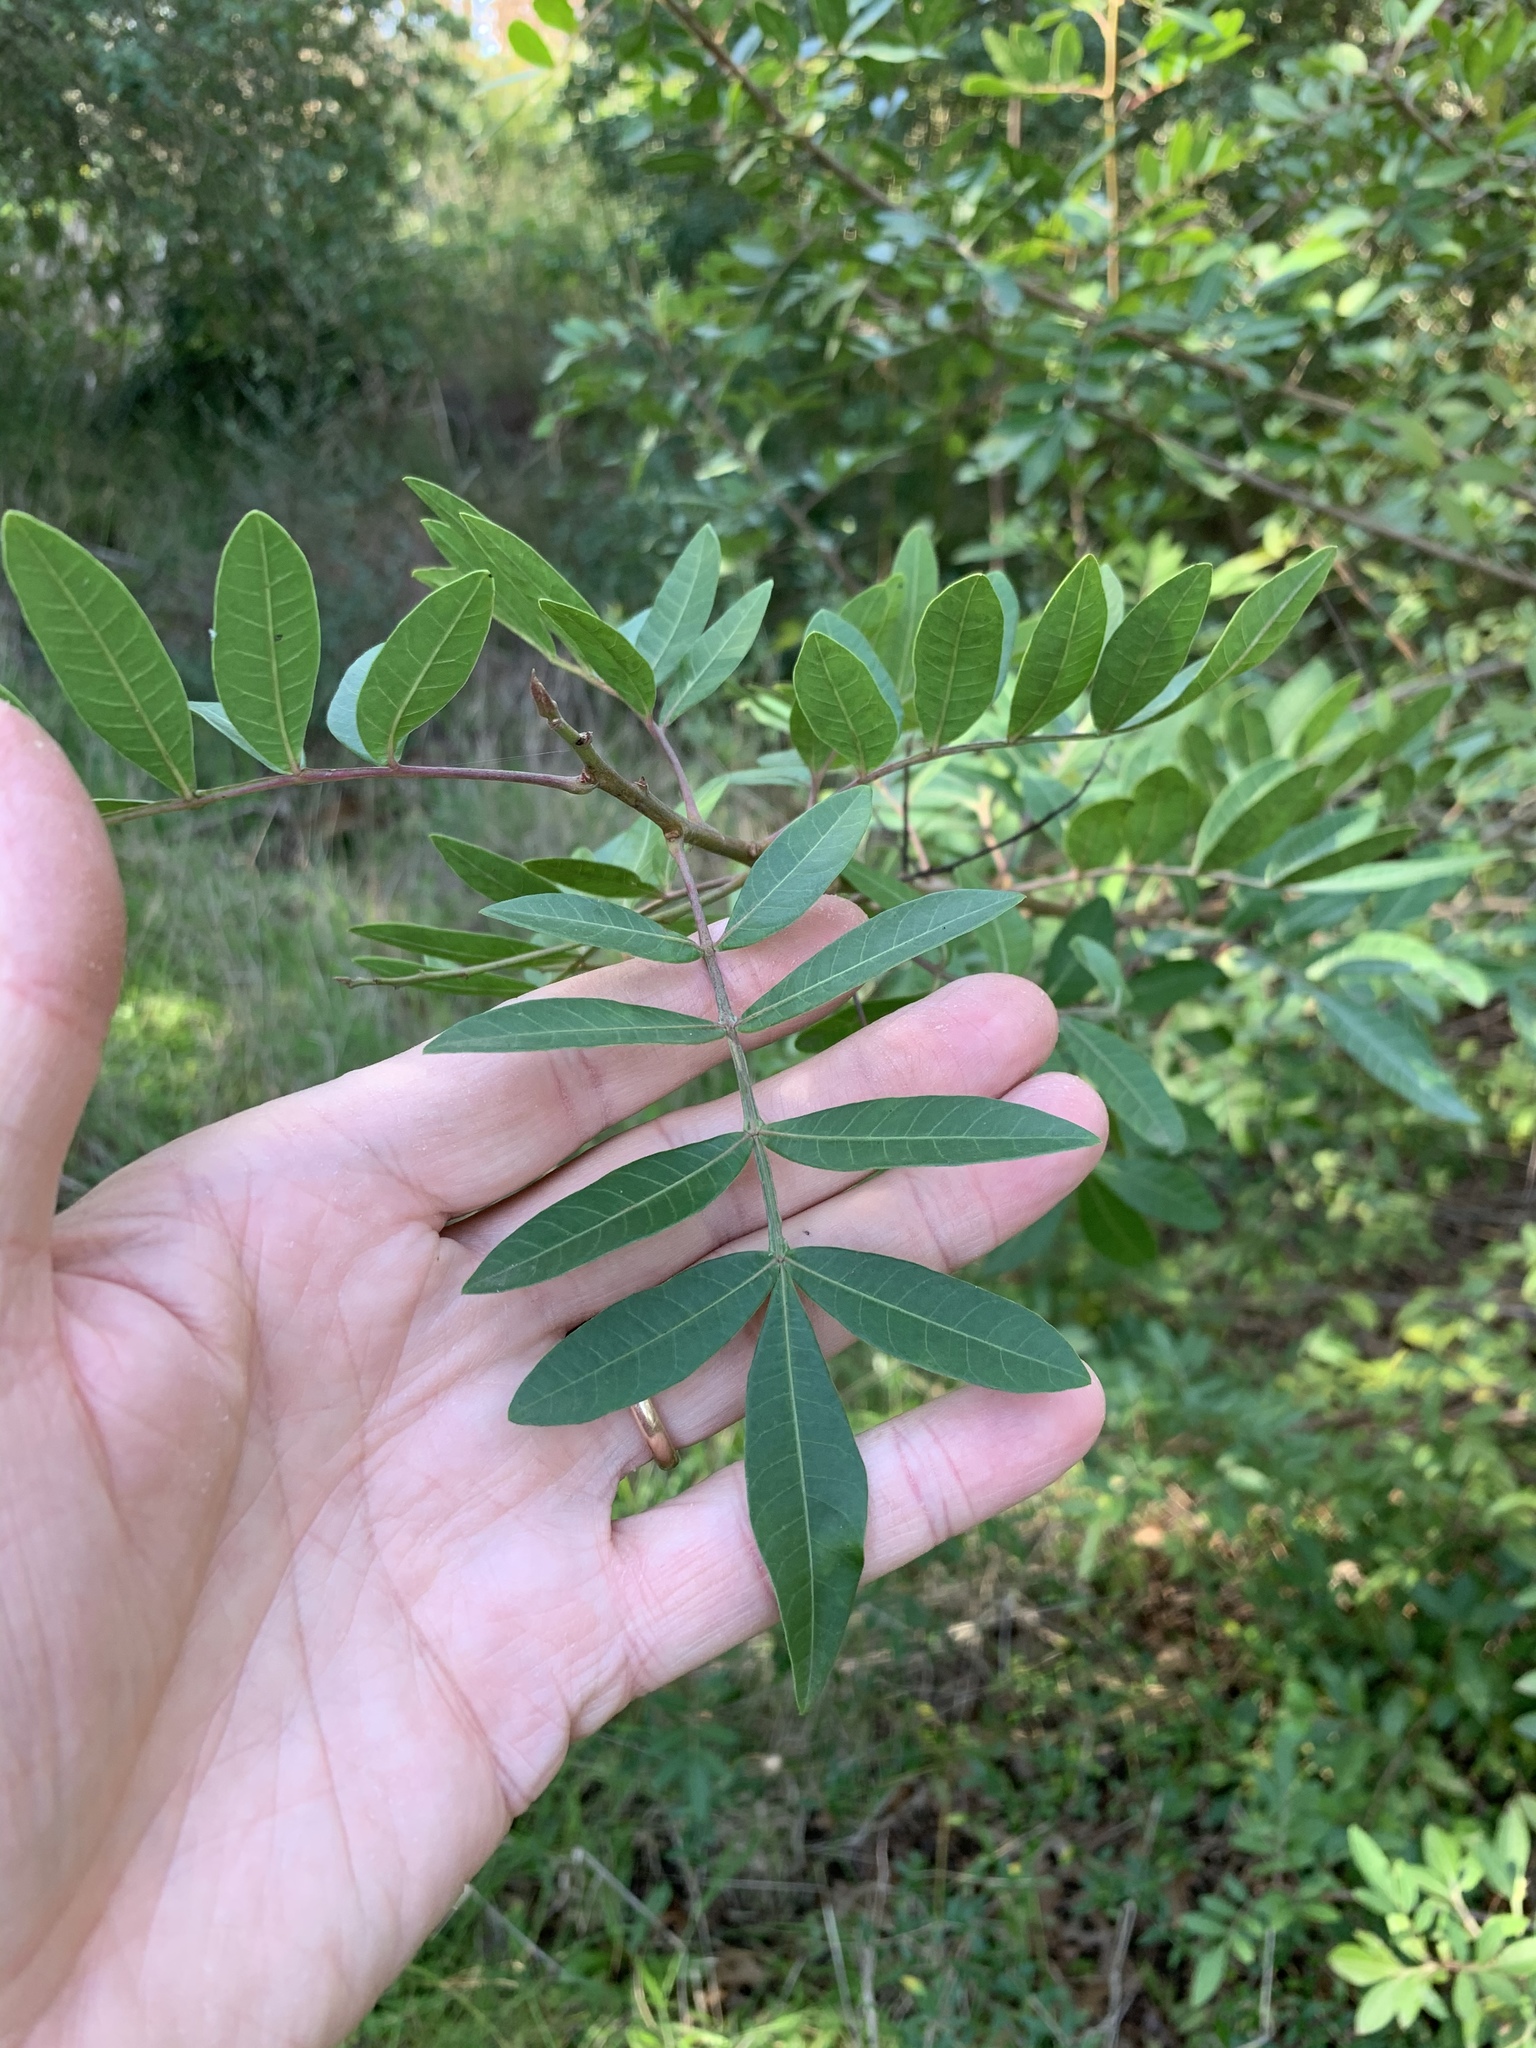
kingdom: Plantae
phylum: Tracheophyta
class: Magnoliopsida
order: Sapindales
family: Anacardiaceae
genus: Schinus
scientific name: Schinus terebinthifolia
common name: Brazilian peppertree
